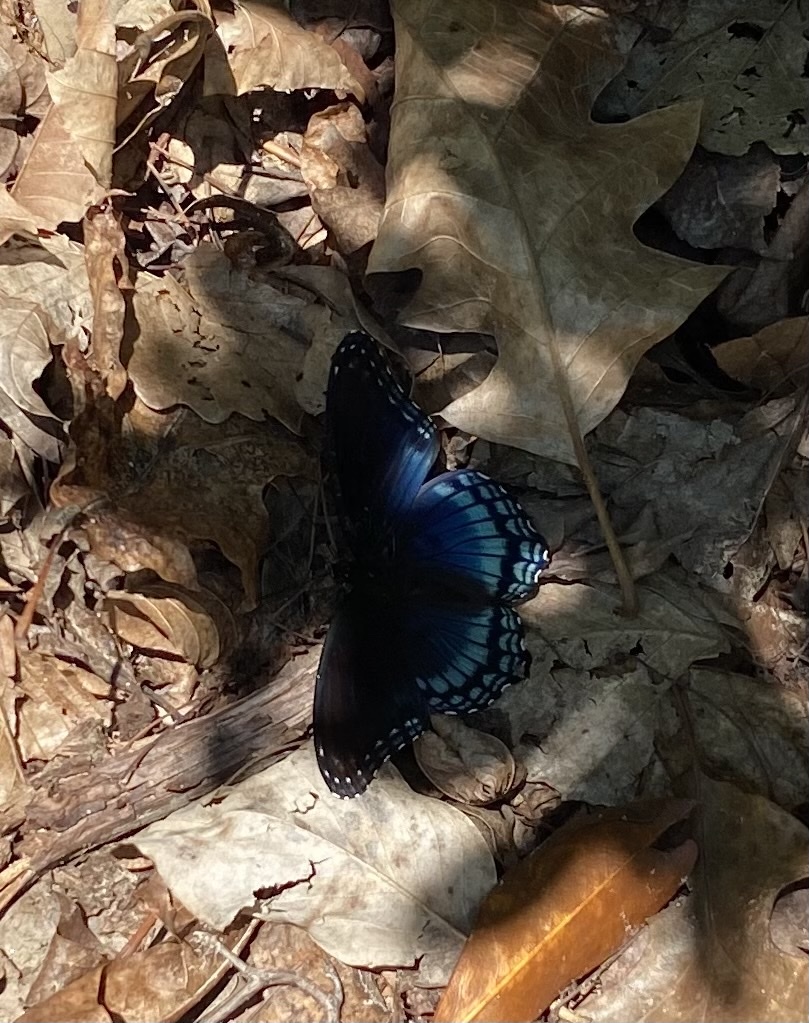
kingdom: Animalia
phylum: Arthropoda
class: Insecta
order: Lepidoptera
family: Nymphalidae
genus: Limenitis
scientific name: Limenitis astyanax
